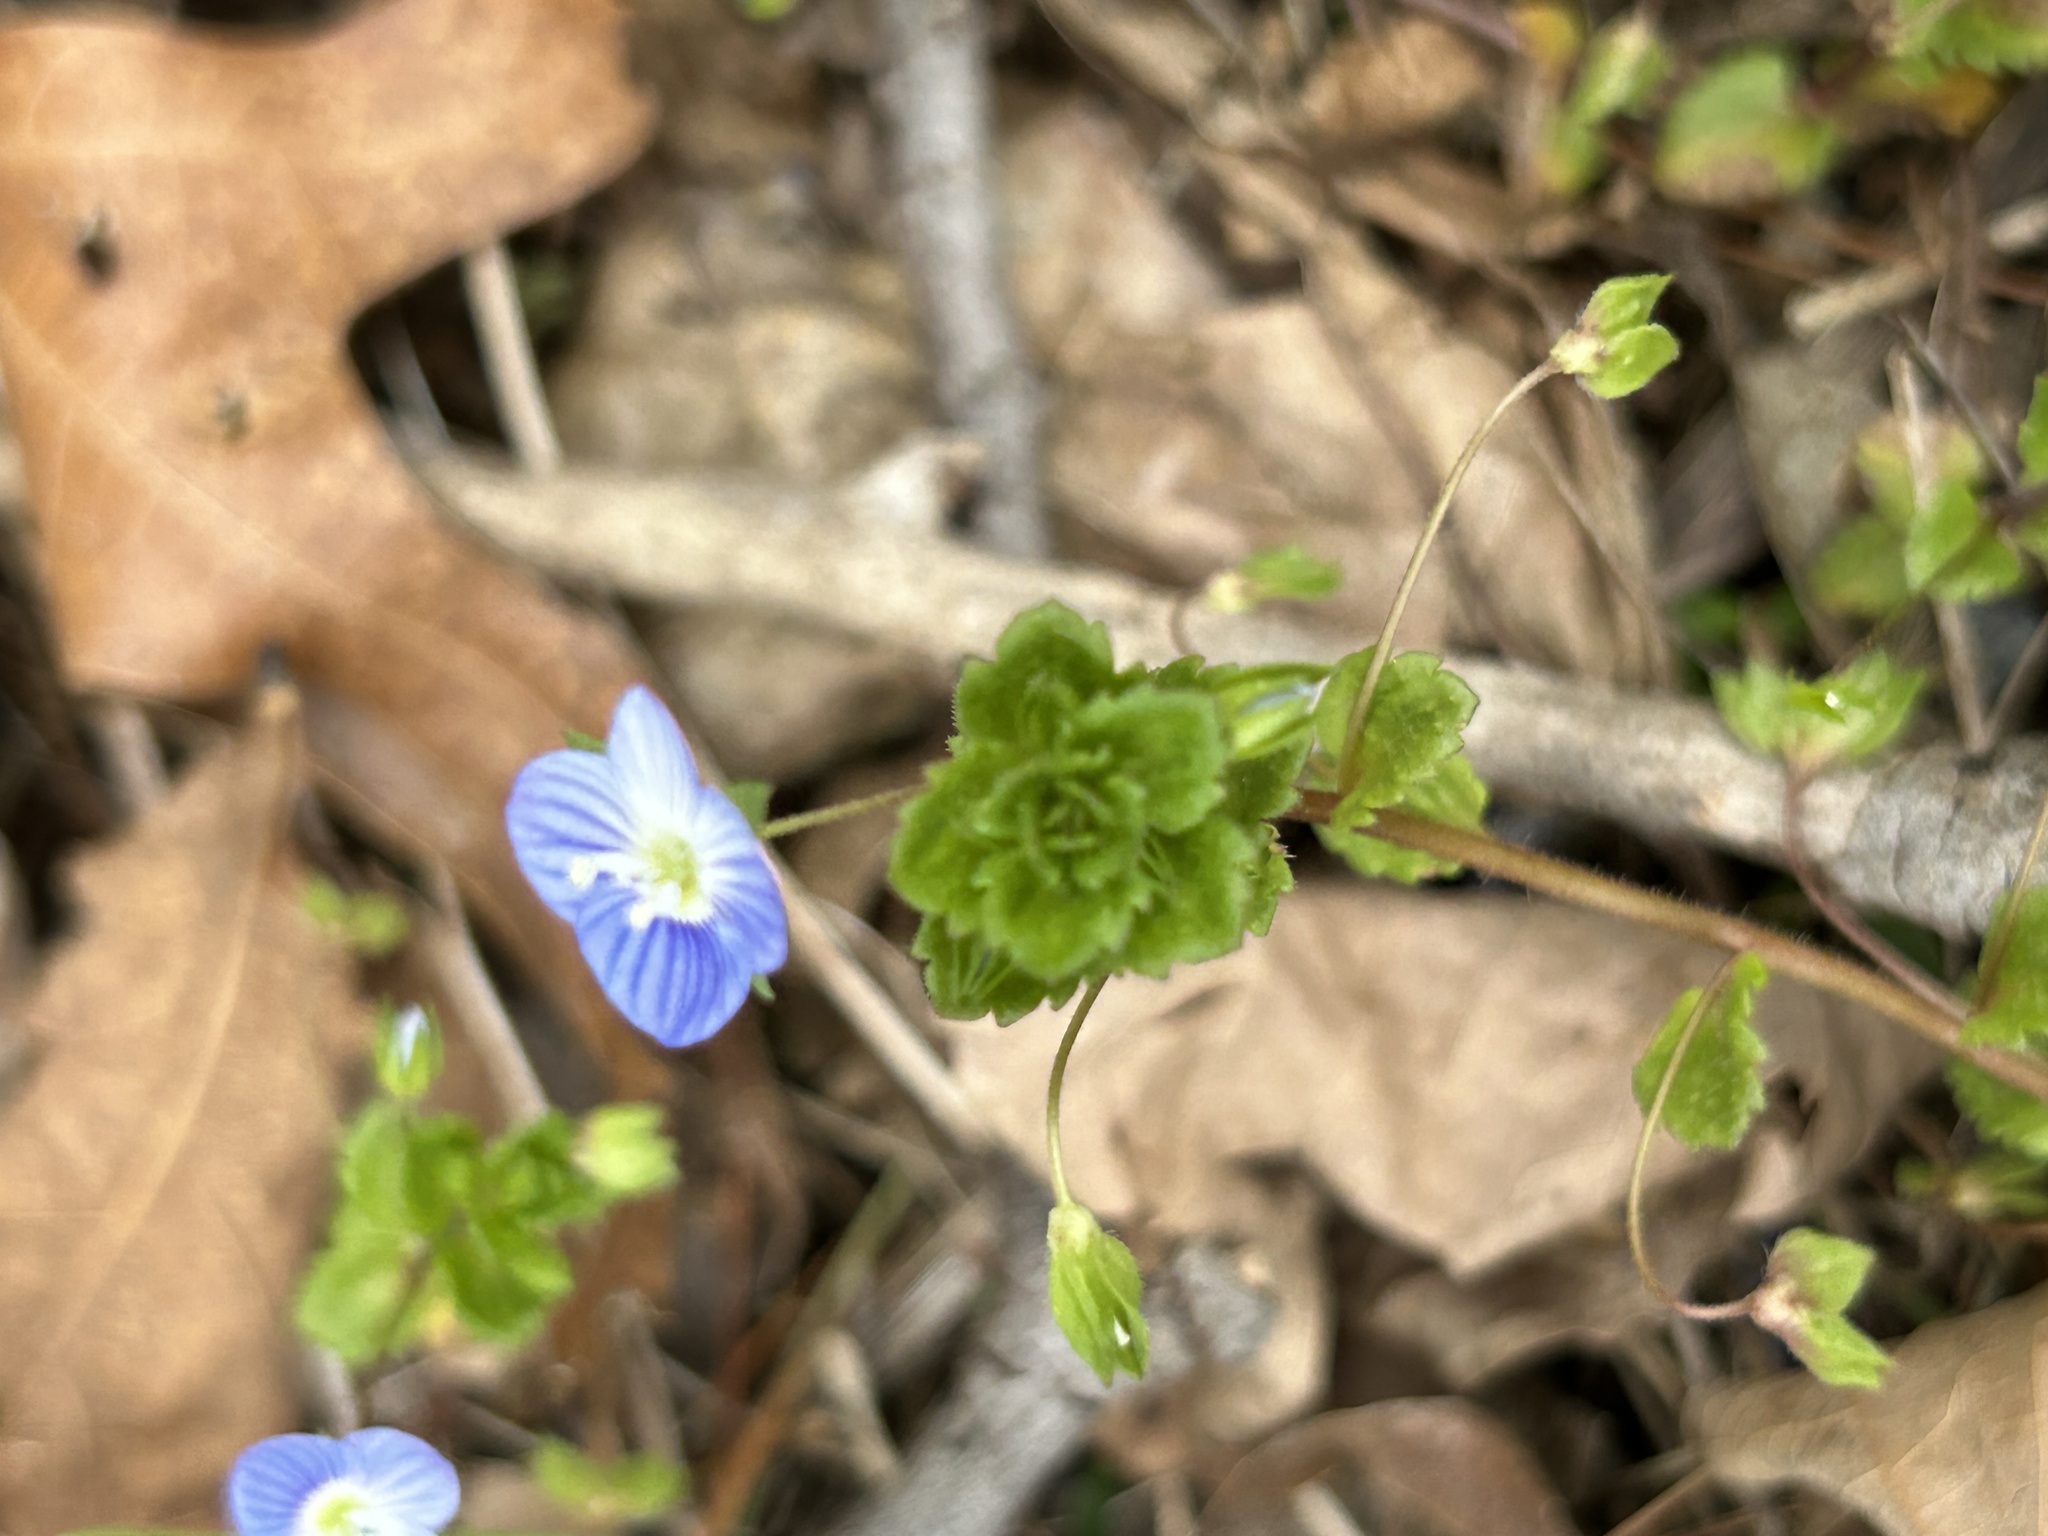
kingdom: Plantae
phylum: Tracheophyta
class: Magnoliopsida
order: Lamiales
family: Plantaginaceae
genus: Veronica
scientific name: Veronica persica
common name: Common field-speedwell
